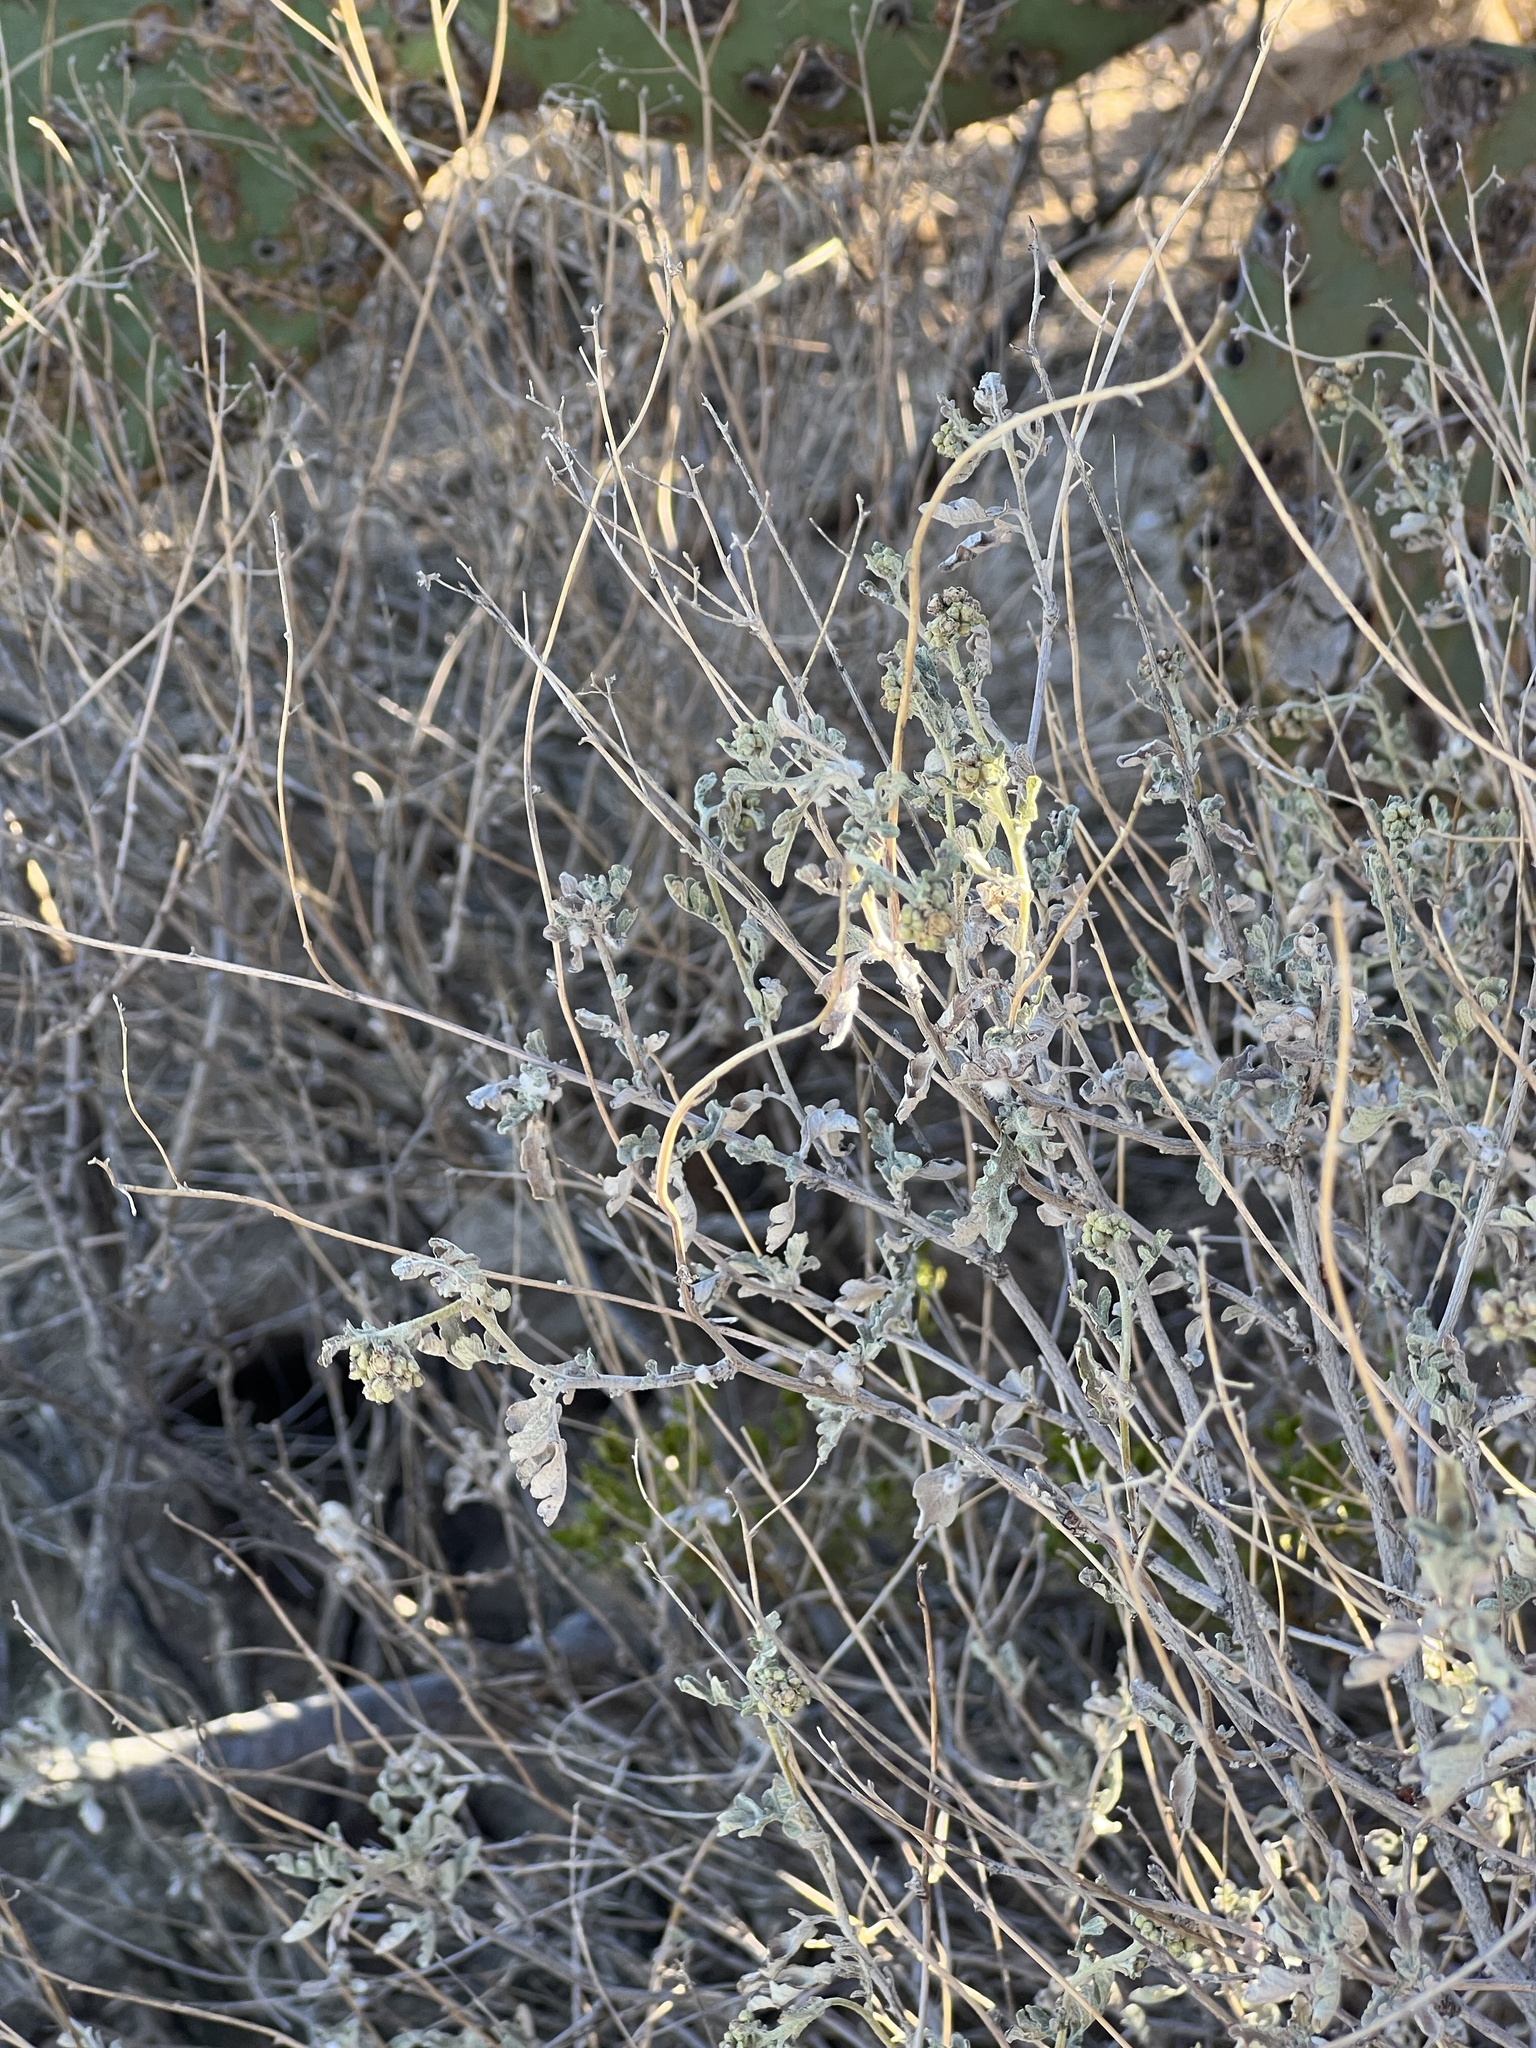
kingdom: Plantae
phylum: Tracheophyta
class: Magnoliopsida
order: Asterales
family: Asteraceae
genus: Parthenium
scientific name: Parthenium incanum
